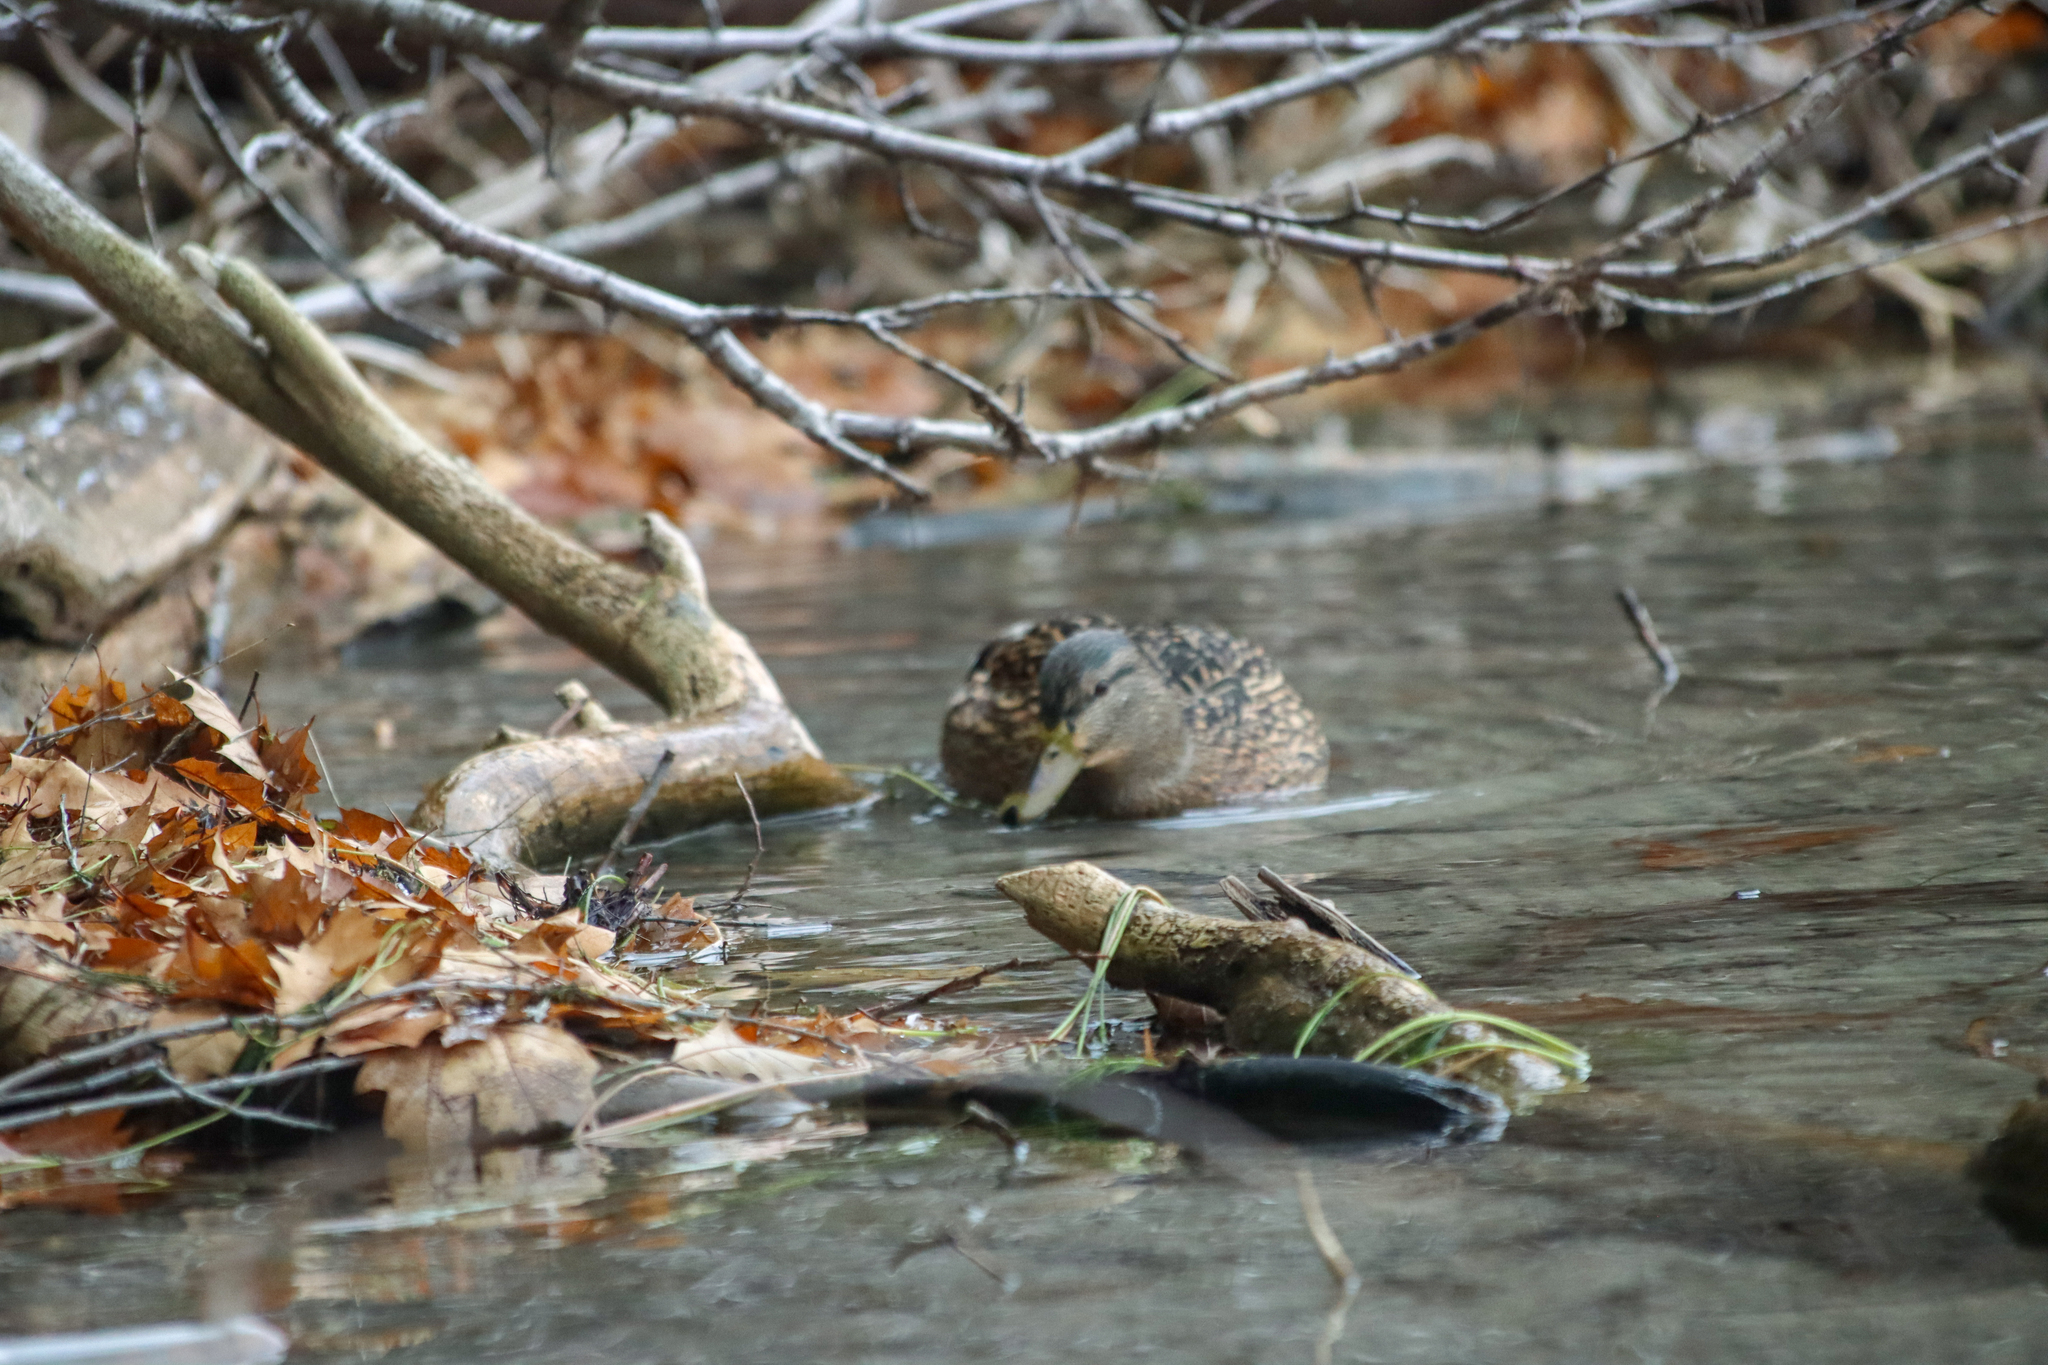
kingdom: Animalia
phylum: Chordata
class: Aves
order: Anseriformes
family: Anatidae
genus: Anas
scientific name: Anas platyrhynchos
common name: Mallard
